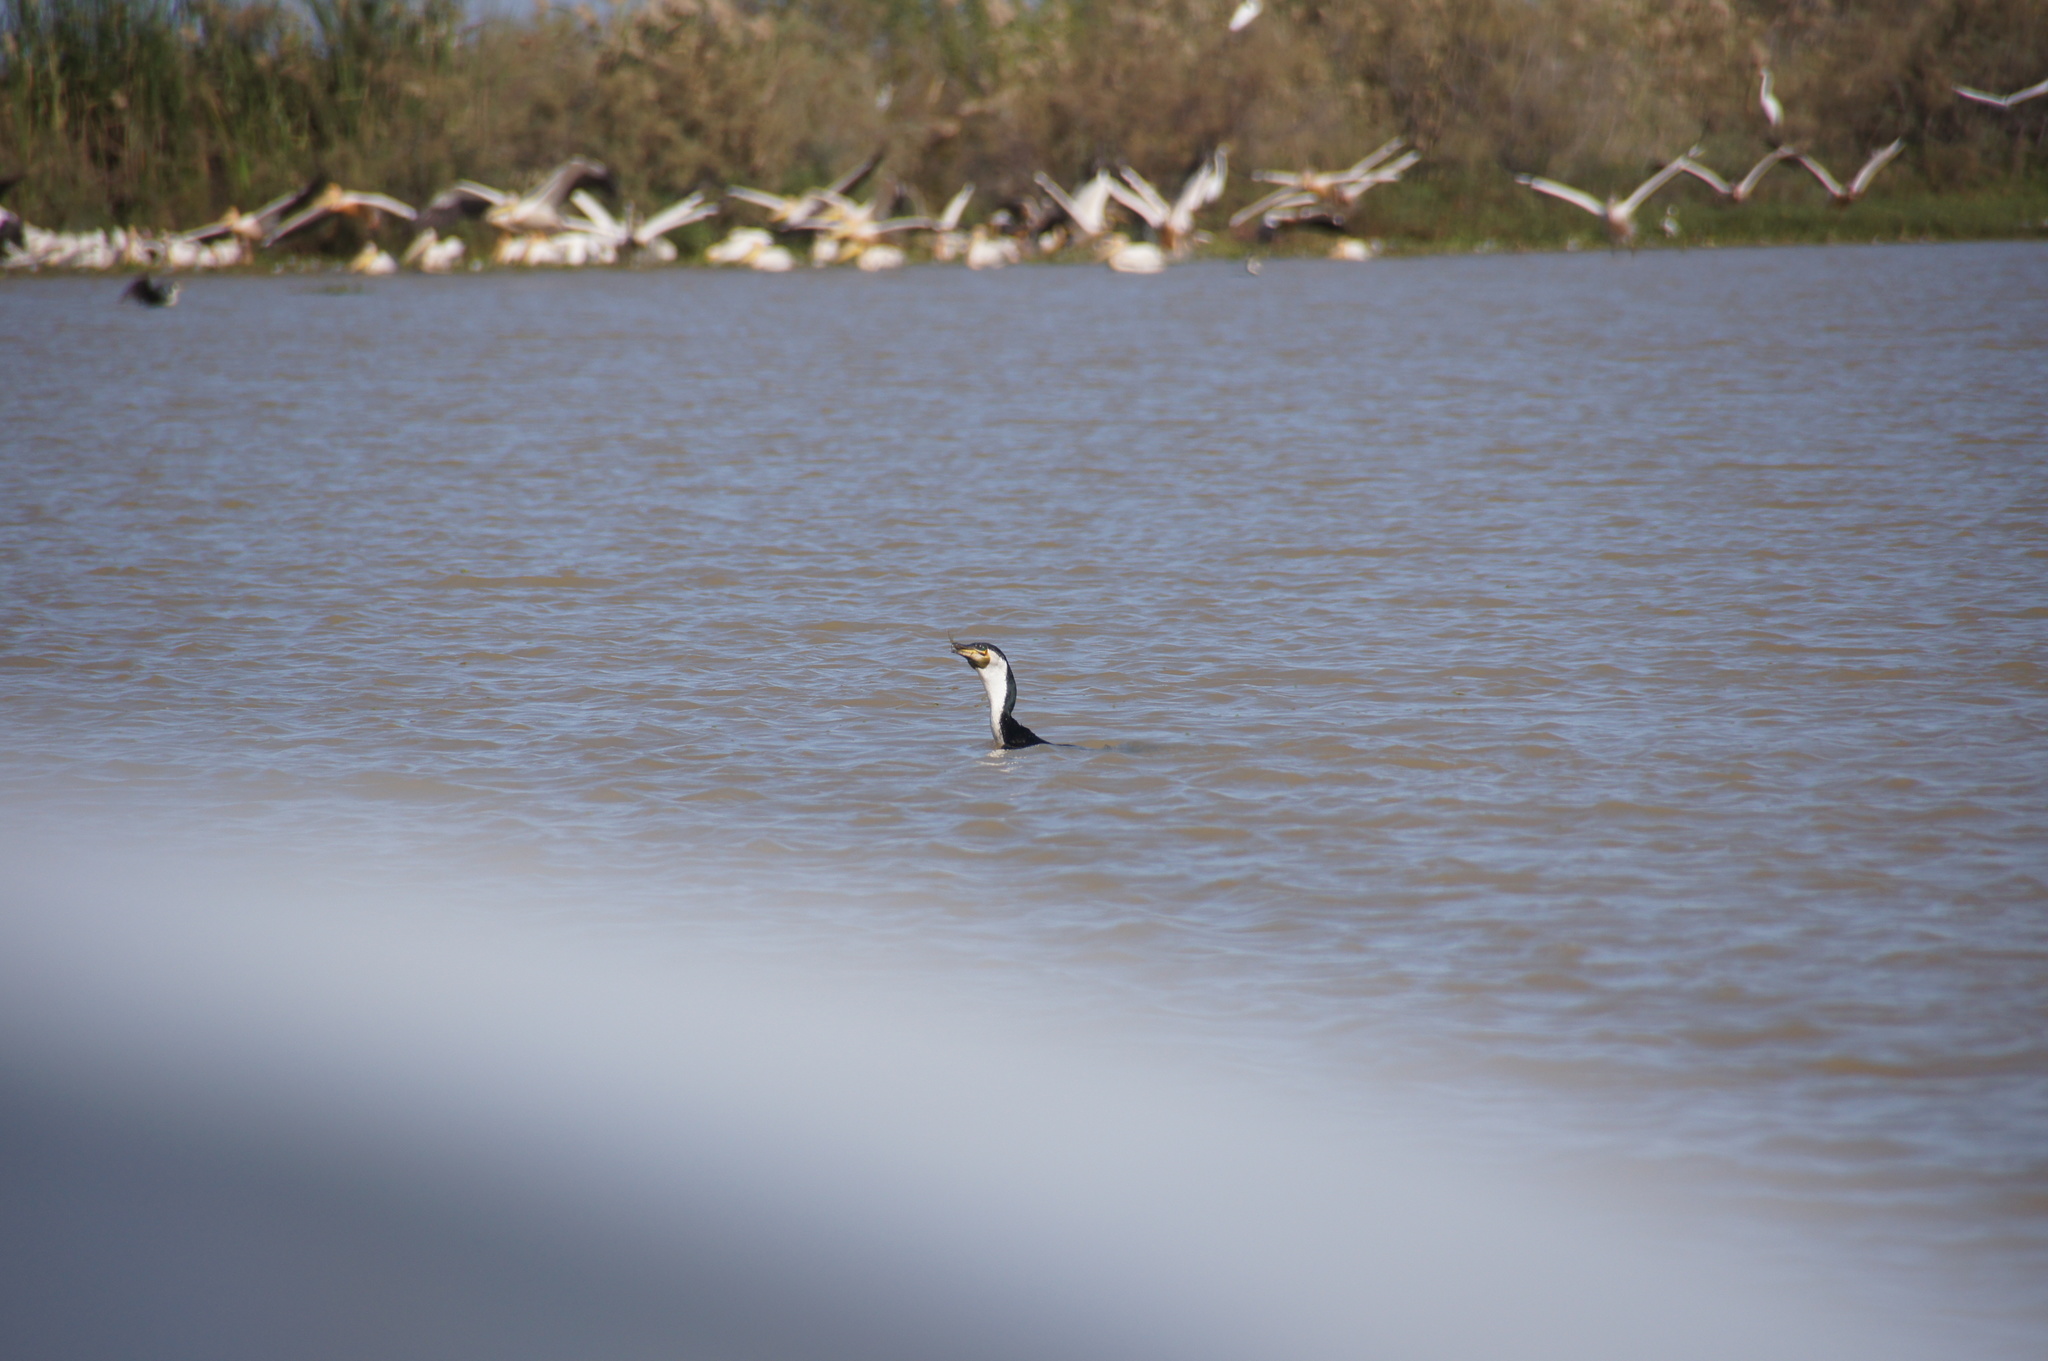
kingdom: Animalia
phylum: Chordata
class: Aves
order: Suliformes
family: Phalacrocoracidae
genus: Phalacrocorax
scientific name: Phalacrocorax carbo
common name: Great cormorant
